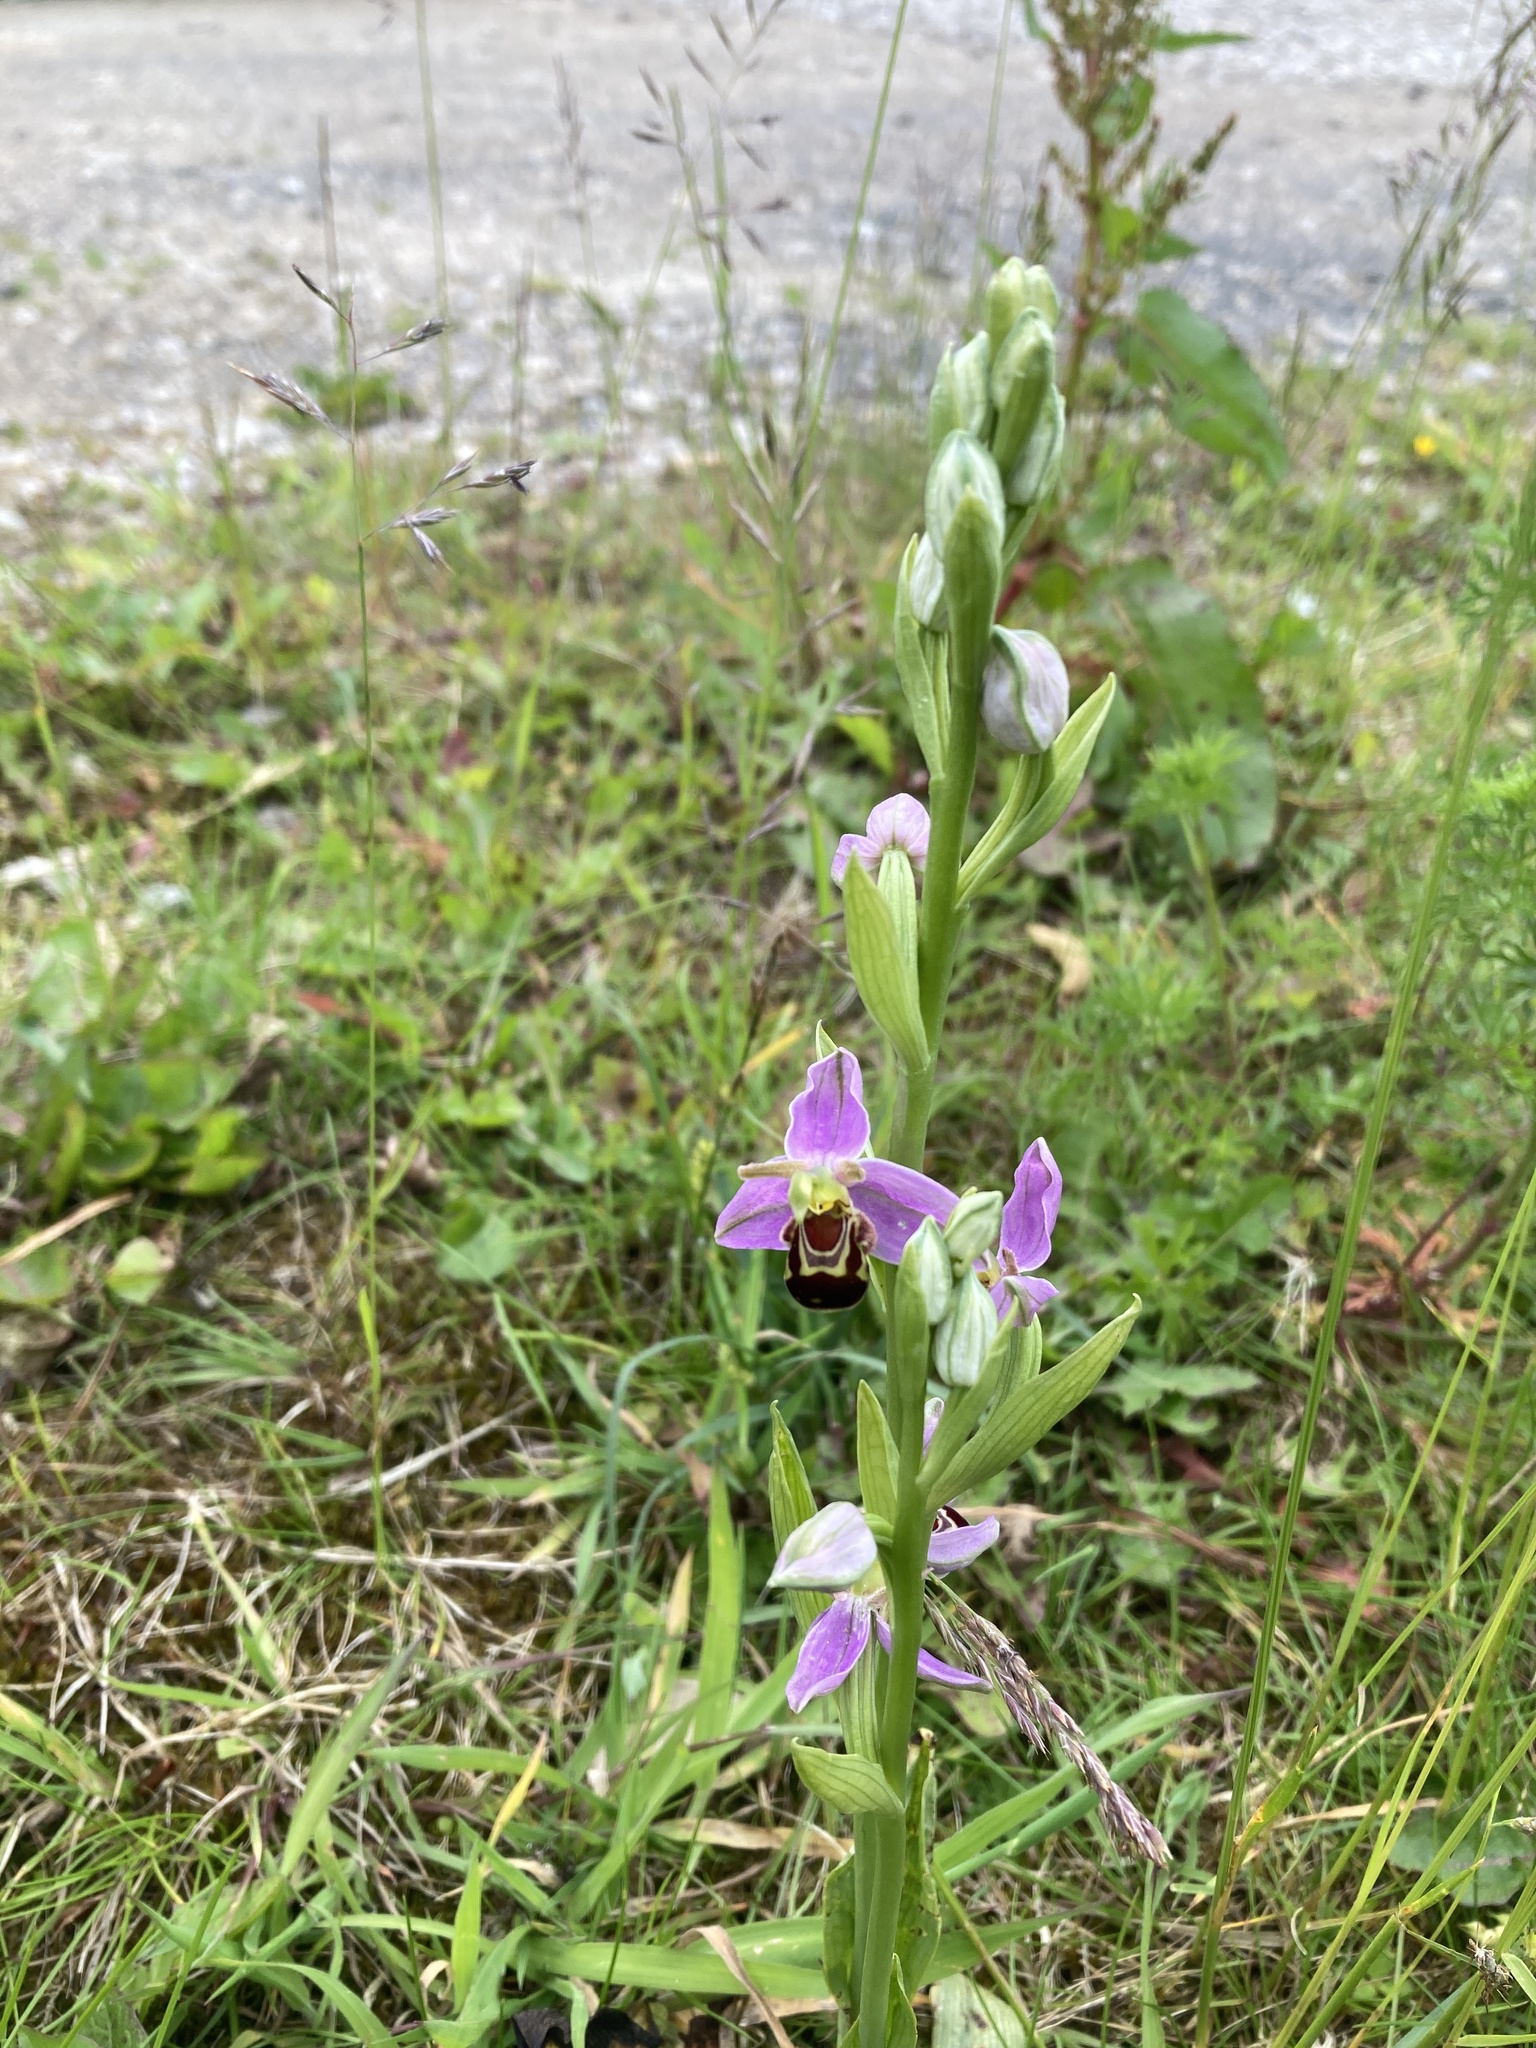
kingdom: Plantae
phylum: Tracheophyta
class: Liliopsida
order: Asparagales
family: Orchidaceae
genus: Ophrys
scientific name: Ophrys apifera
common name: Bee orchid
